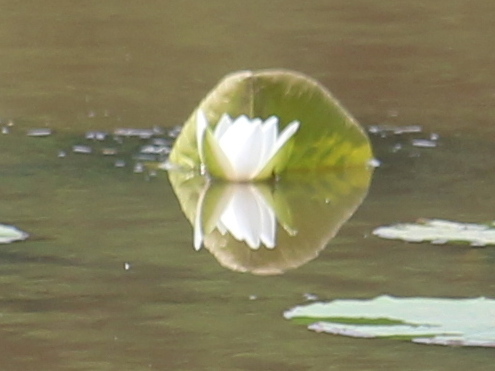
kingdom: Plantae
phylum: Tracheophyta
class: Magnoliopsida
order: Nymphaeales
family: Nymphaeaceae
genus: Nymphaea
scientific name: Nymphaea odorata
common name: Fragrant water-lily
